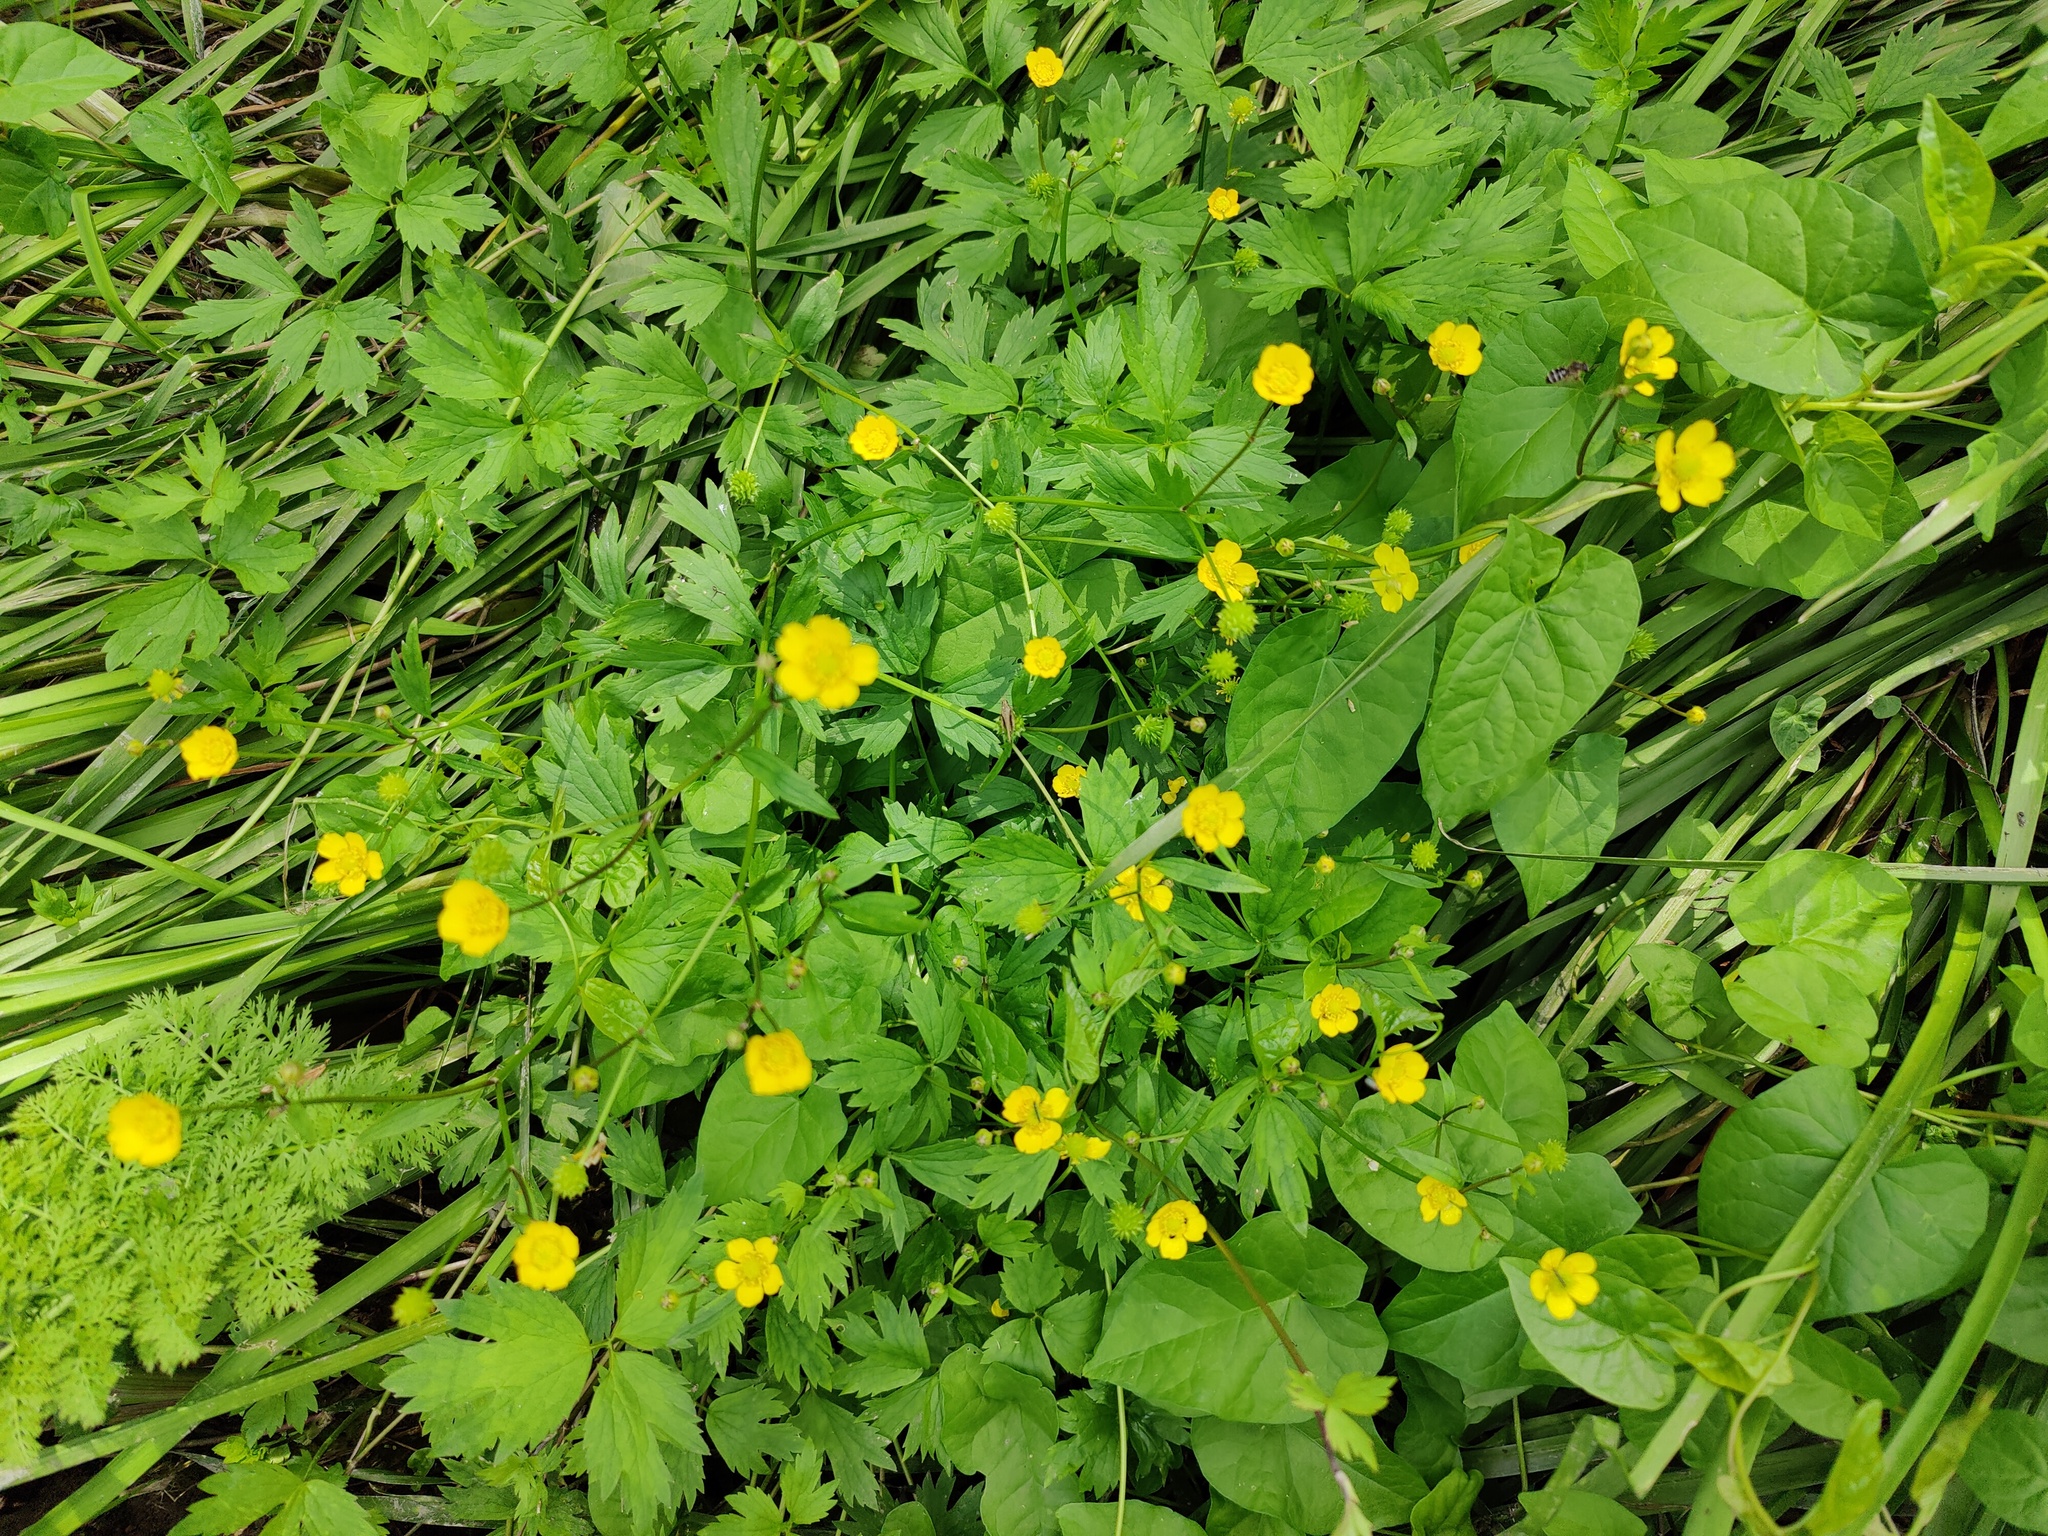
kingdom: Plantae
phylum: Tracheophyta
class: Magnoliopsida
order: Ranunculales
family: Ranunculaceae
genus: Ranunculus
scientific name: Ranunculus repens
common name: Creeping buttercup
